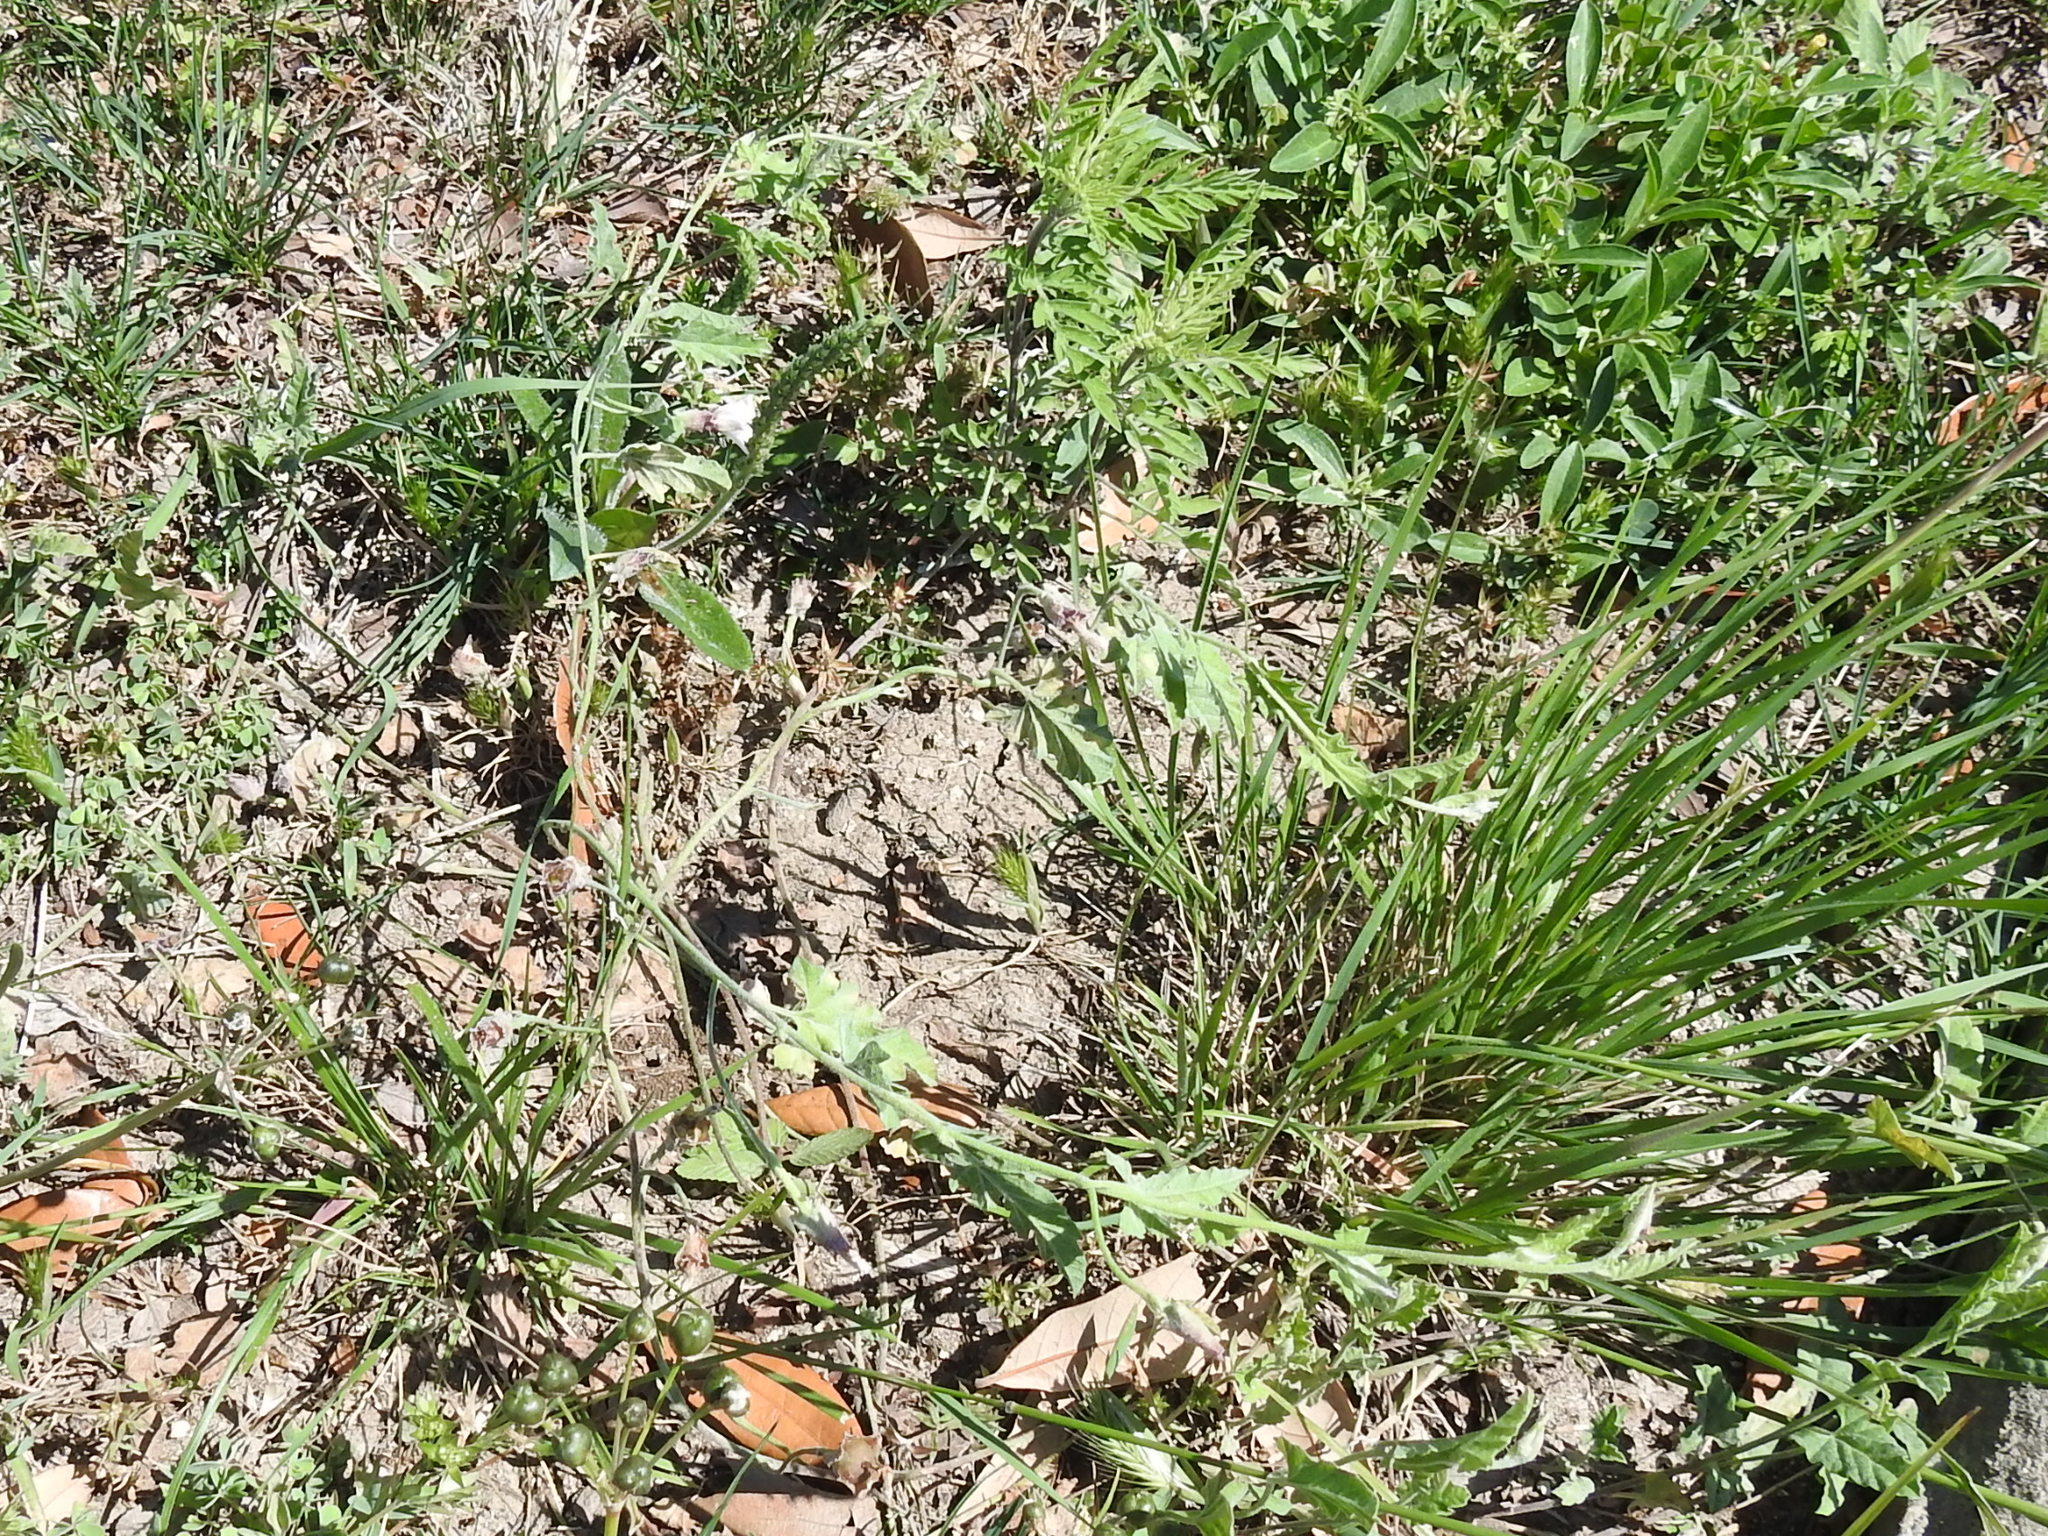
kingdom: Plantae
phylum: Tracheophyta
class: Magnoliopsida
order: Solanales
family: Convolvulaceae
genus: Convolvulus
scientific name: Convolvulus equitans
